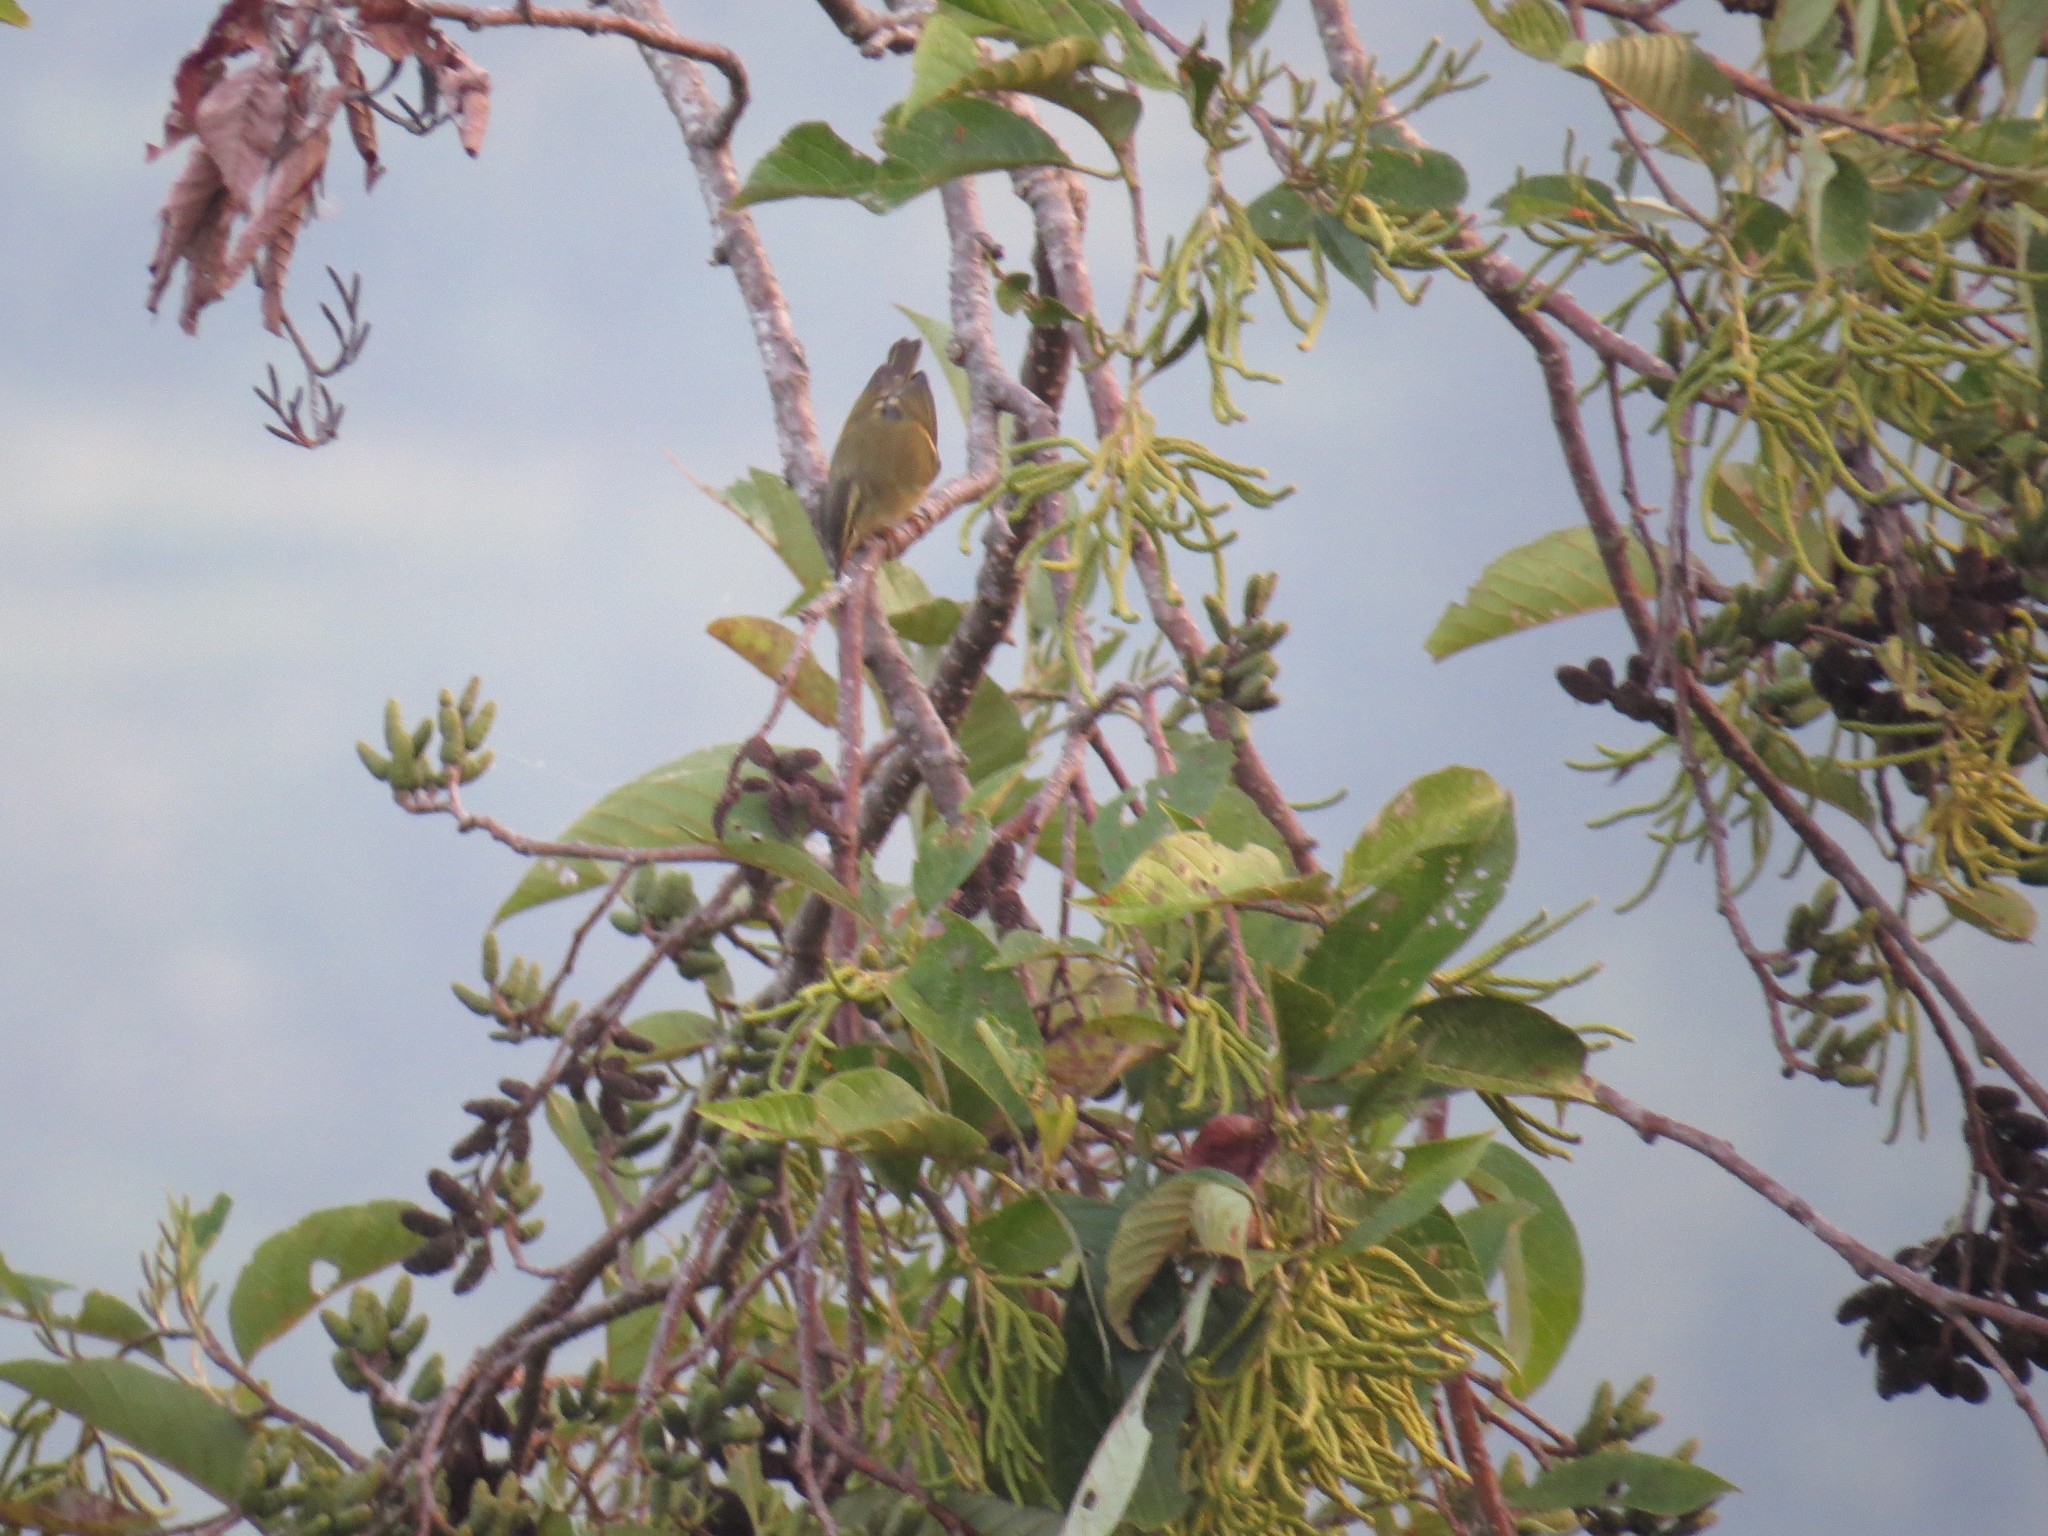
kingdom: Animalia
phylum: Chordata
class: Aves
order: Passeriformes
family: Phylloscopidae
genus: Phylloscopus
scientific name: Phylloscopus pulcher
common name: Buff-barred warbler
